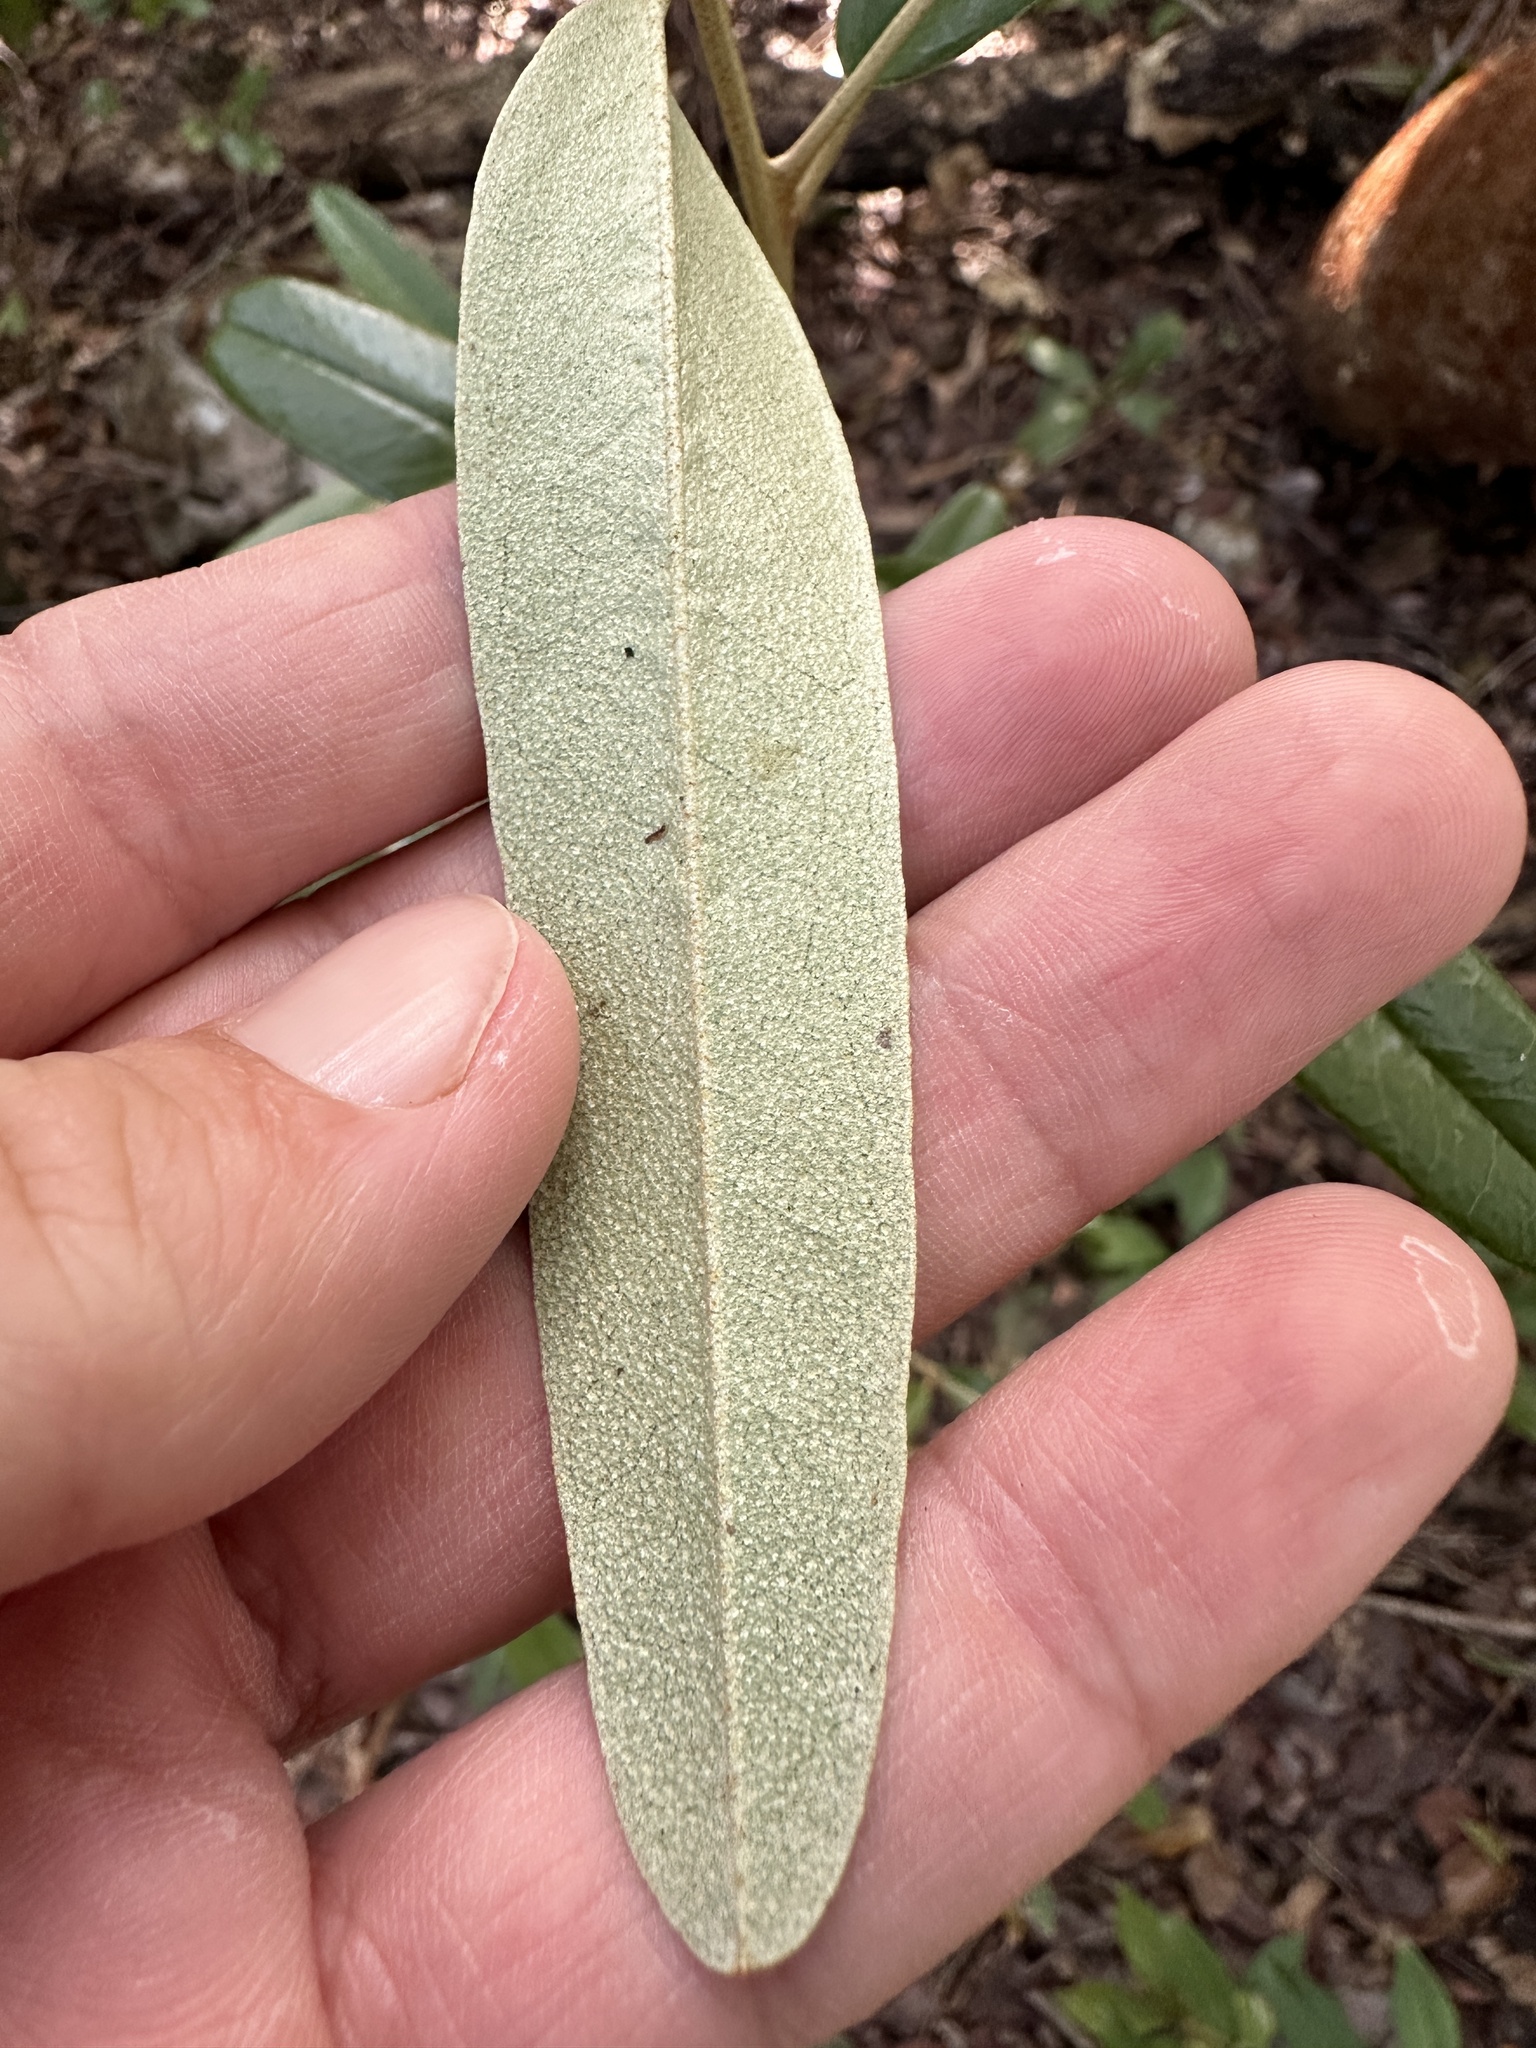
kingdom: Plantae
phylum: Tracheophyta
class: Magnoliopsida
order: Brassicales
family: Capparaceae
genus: Quadrella
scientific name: Quadrella cynophallophora
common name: Black willow
